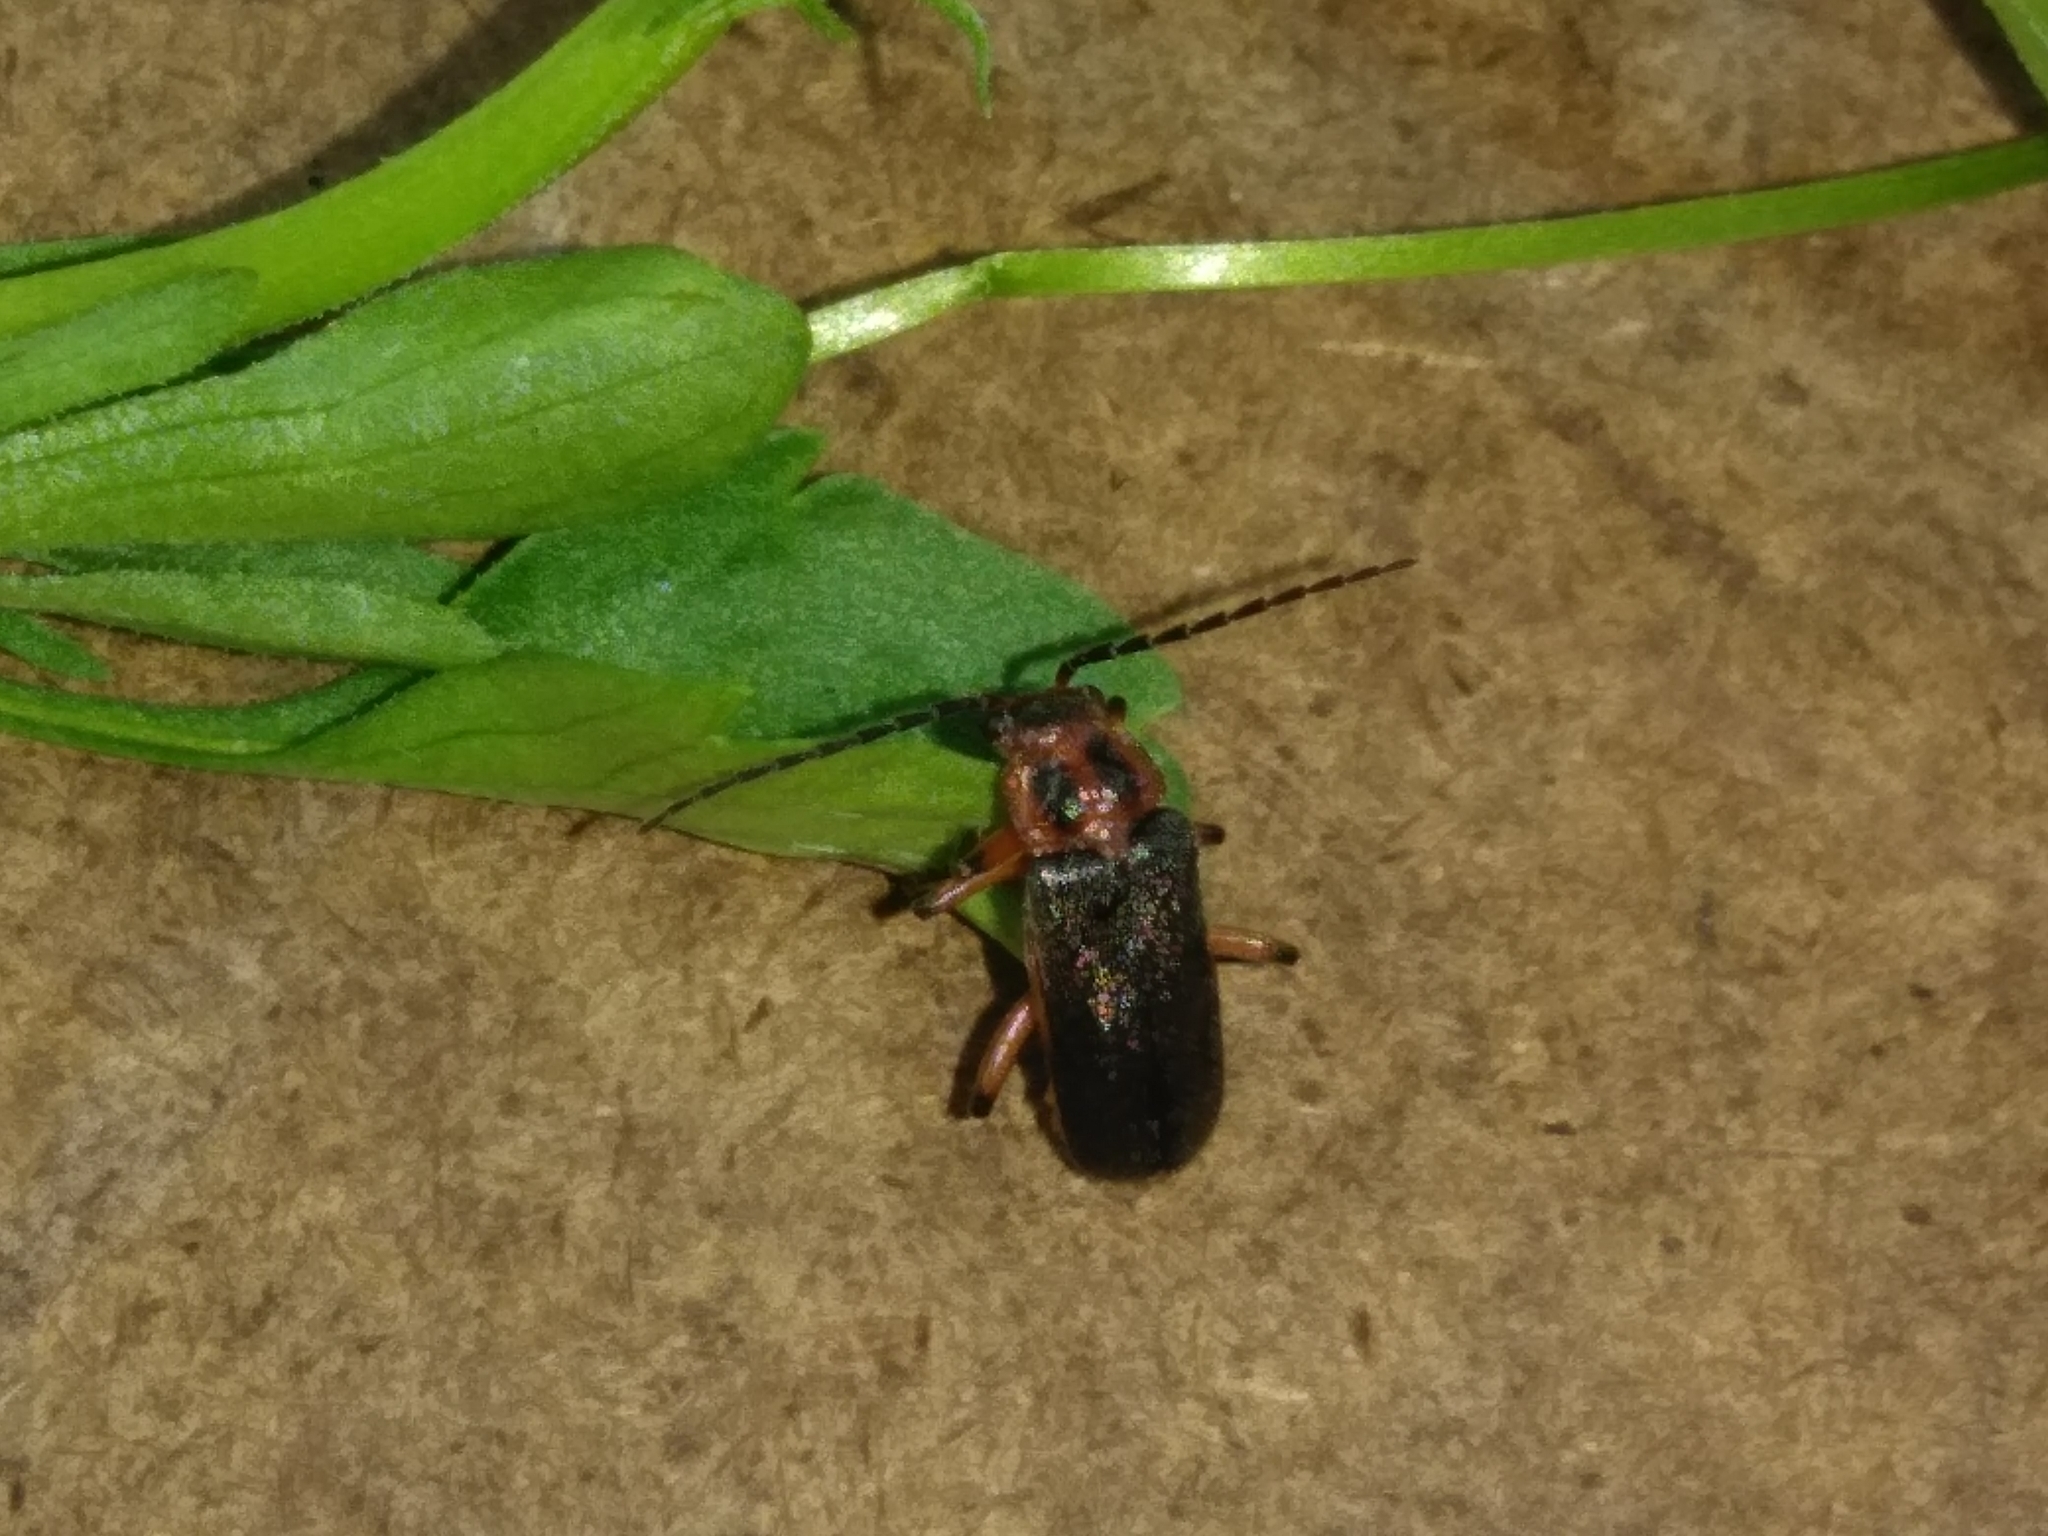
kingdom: Animalia
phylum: Arthropoda
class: Insecta
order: Coleoptera
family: Cantharidae
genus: Atalantycha
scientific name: Atalantycha bilineata
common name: Two-lined leatherwing
